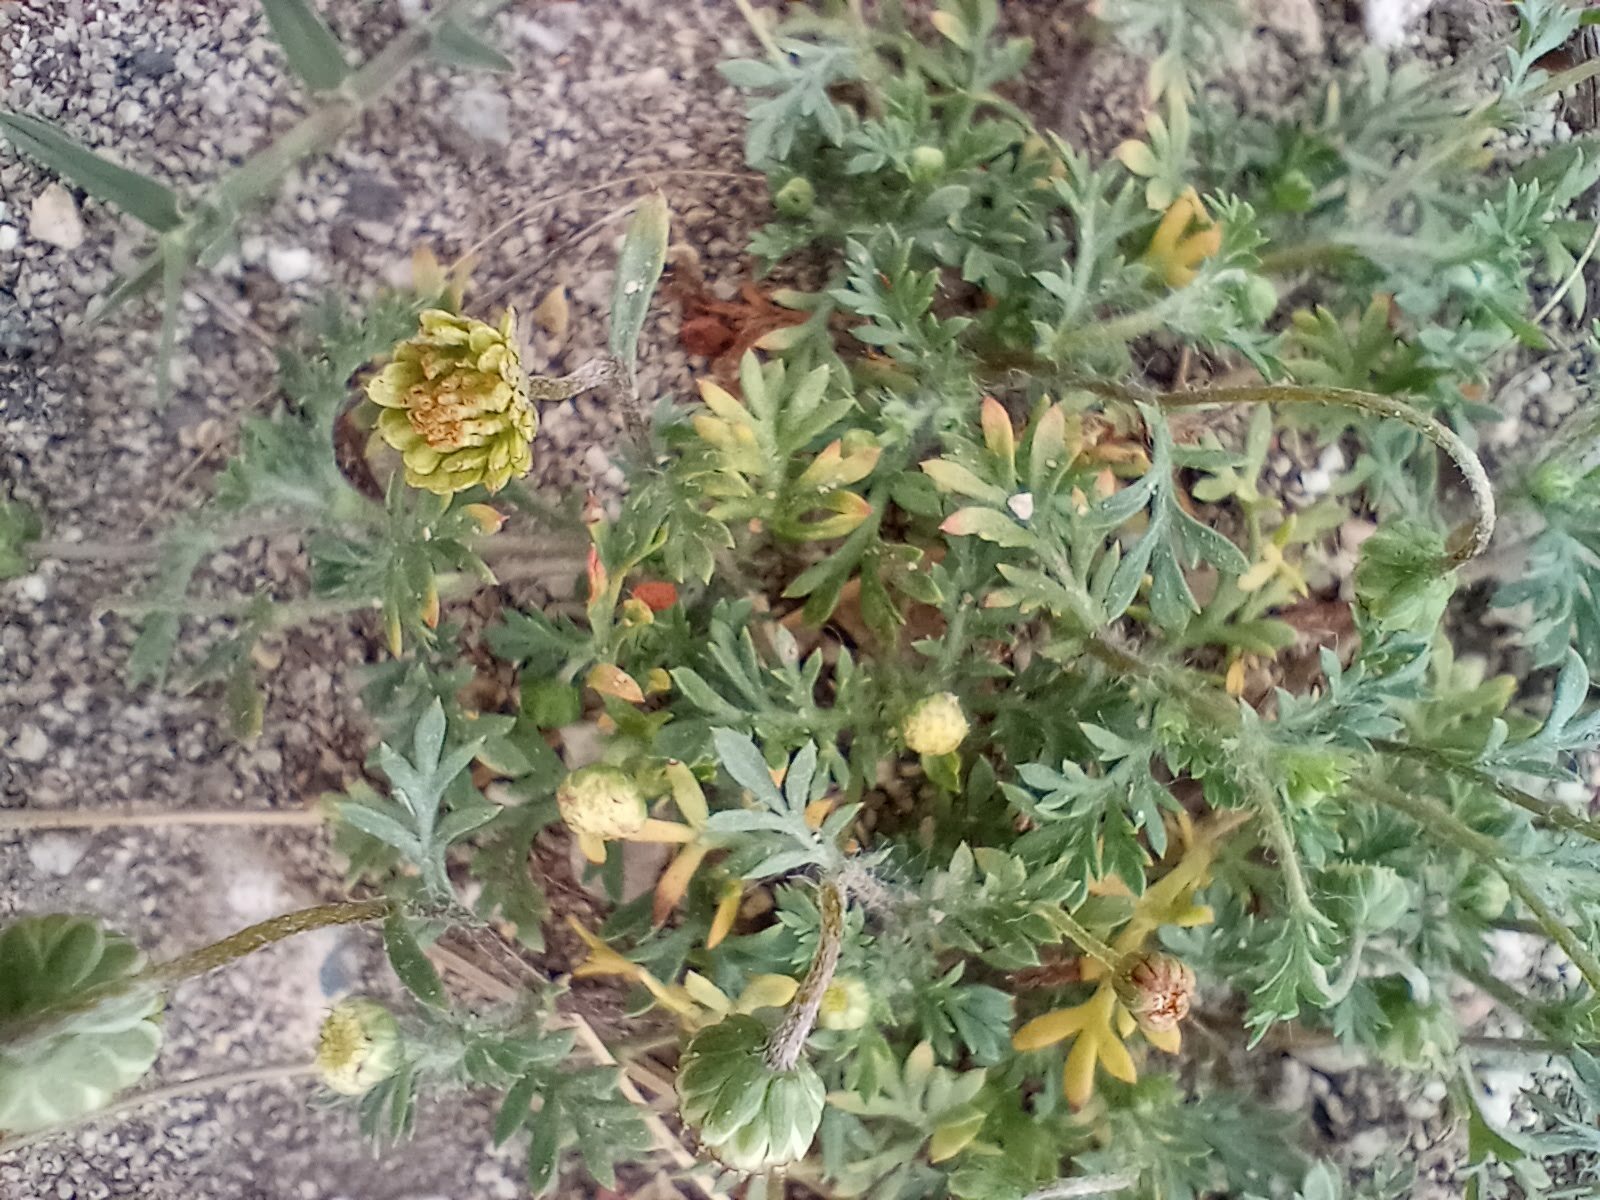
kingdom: Plantae
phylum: Tracheophyta
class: Magnoliopsida
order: Asterales
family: Asteraceae
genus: Cotula
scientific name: Cotula australis
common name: Australian waterbuttons
